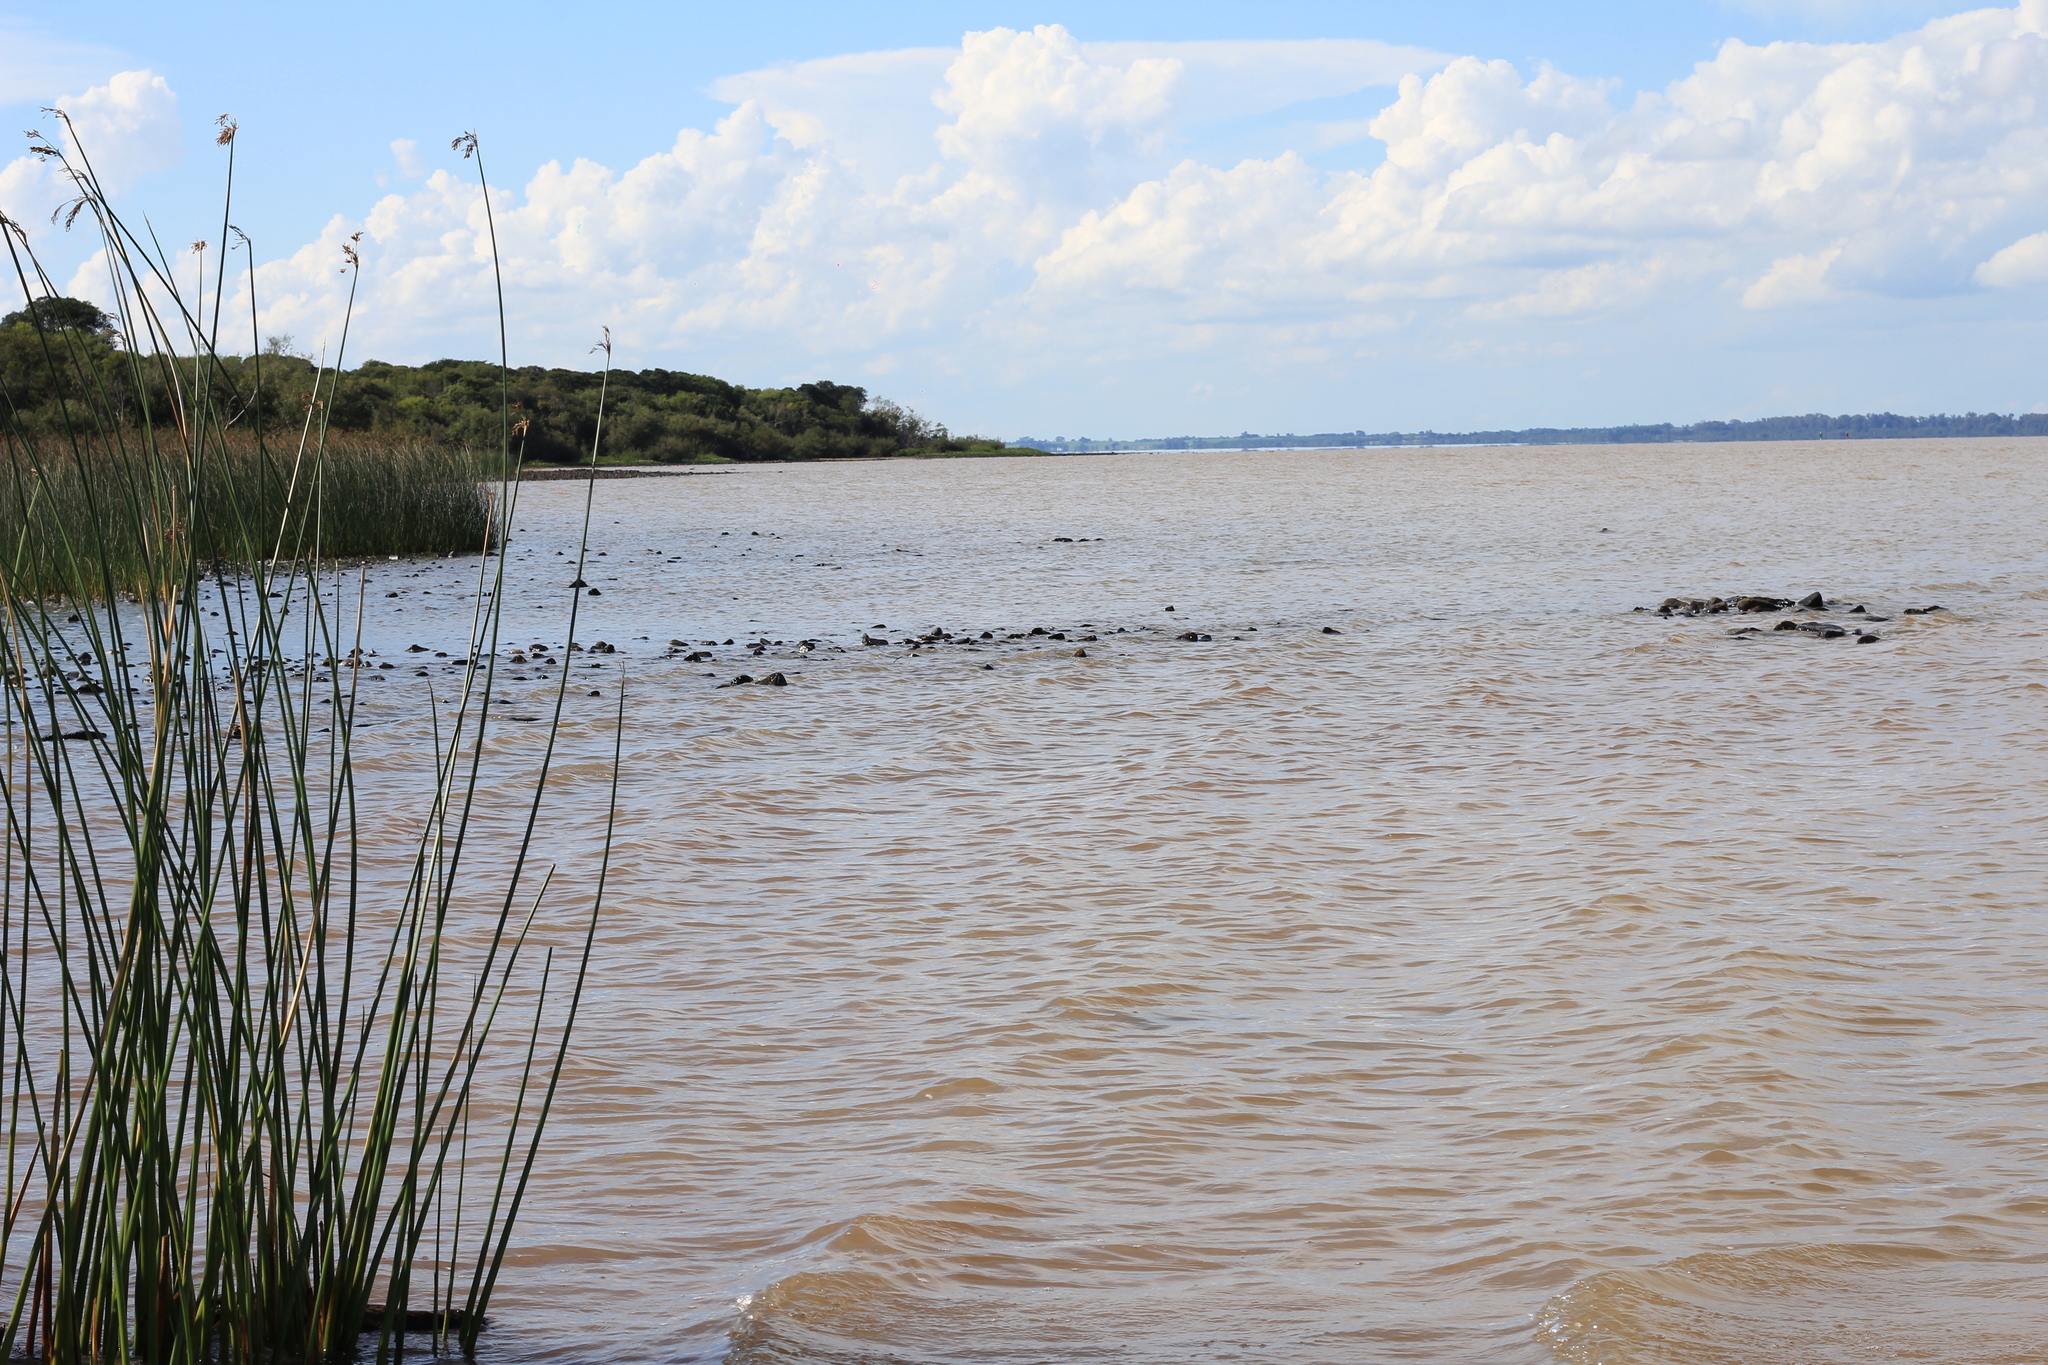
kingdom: Plantae
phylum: Tracheophyta
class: Liliopsida
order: Poales
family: Cyperaceae
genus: Schoenoplectus
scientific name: Schoenoplectus californicus
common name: California bulrush
